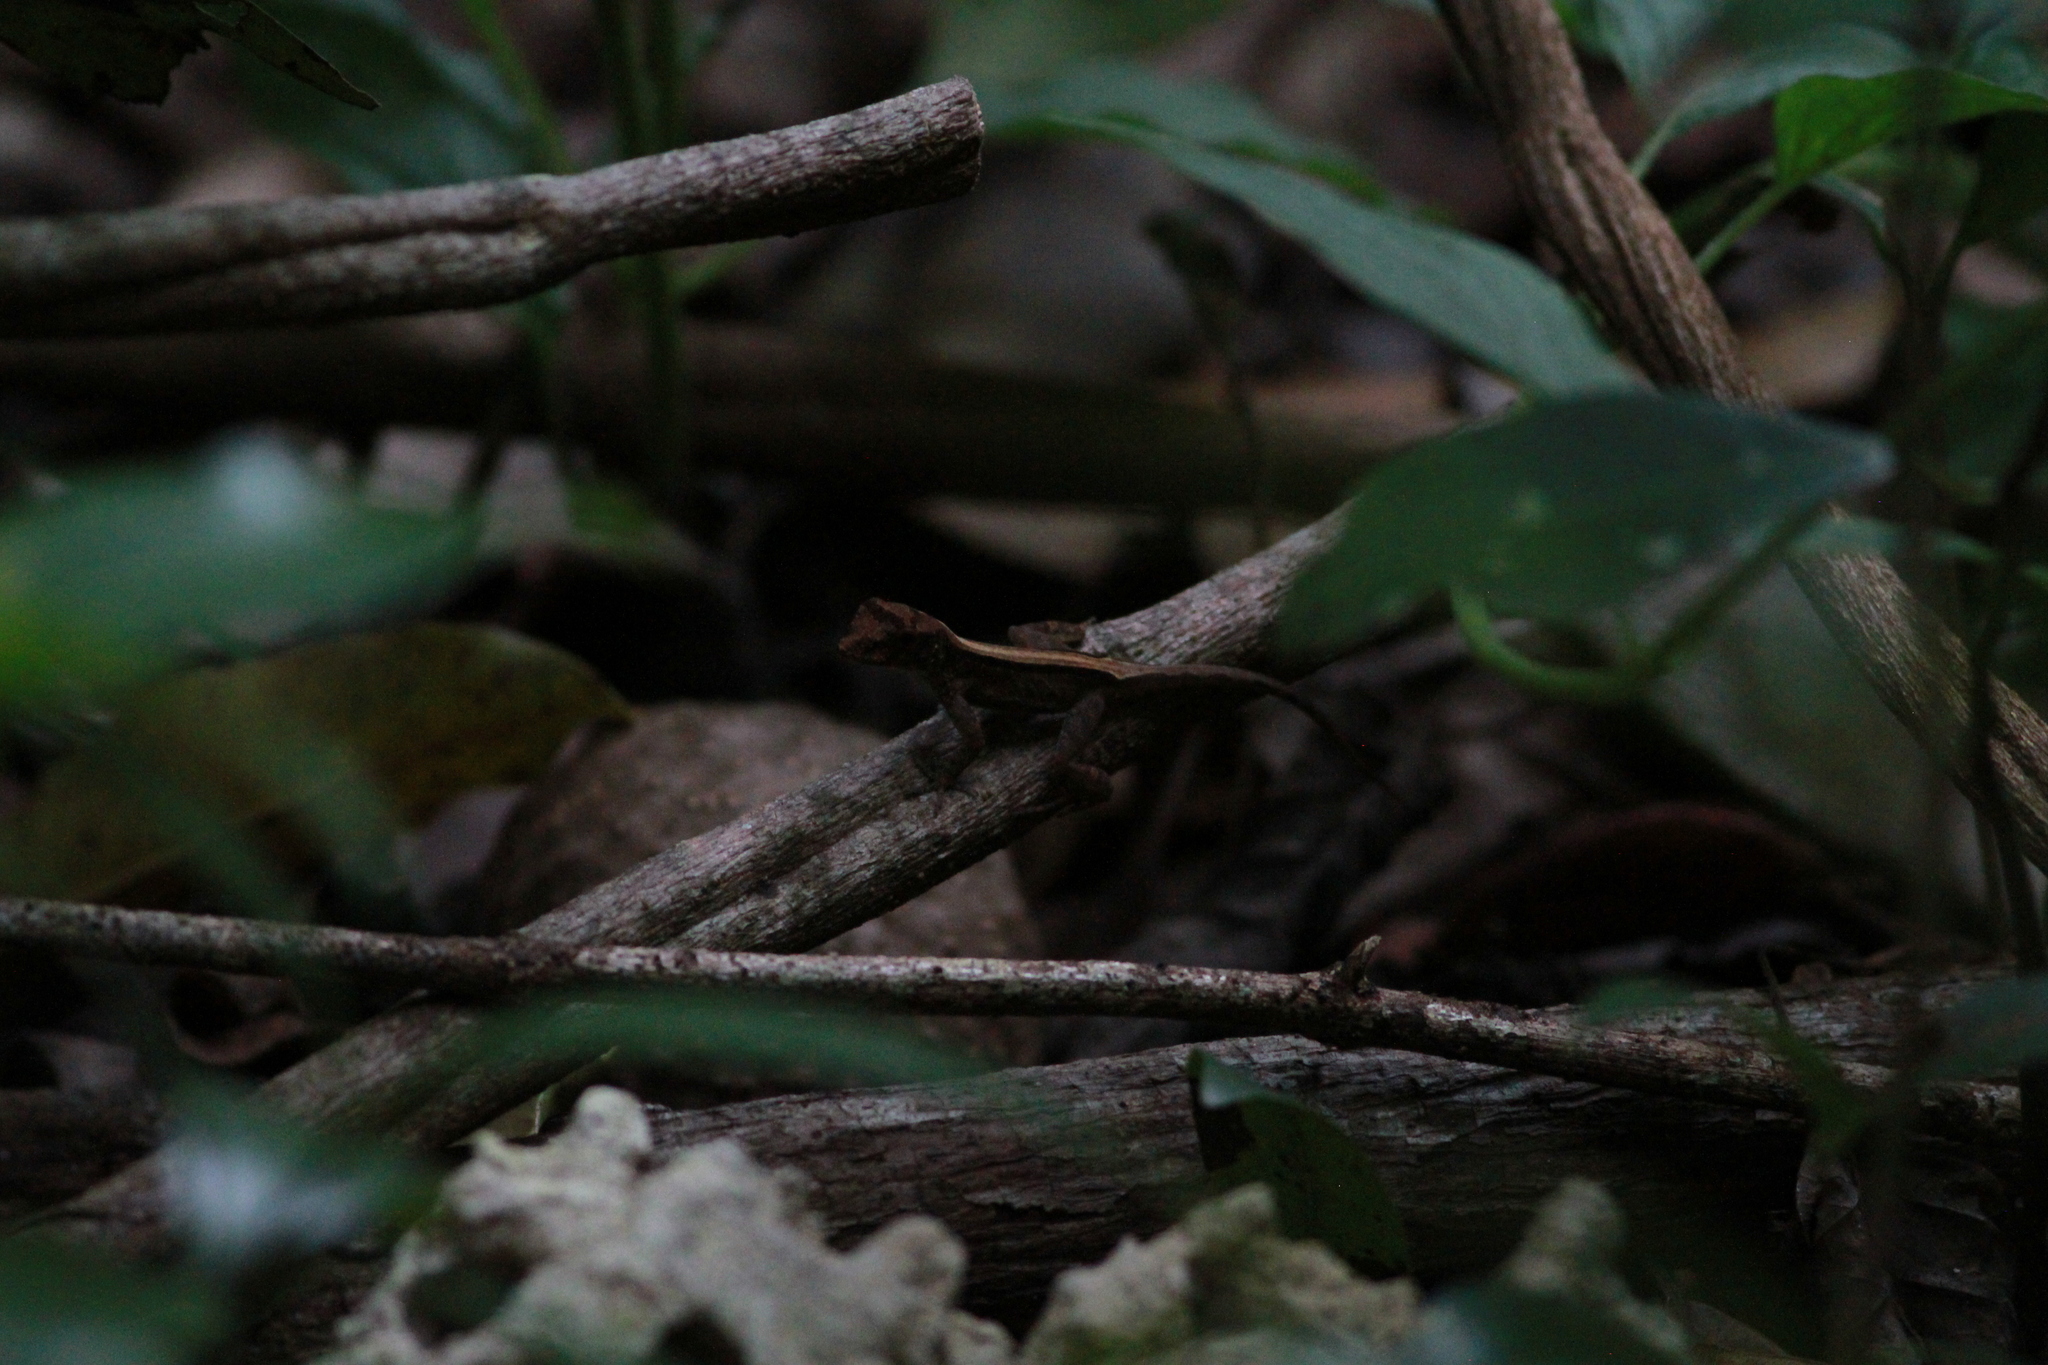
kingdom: Animalia
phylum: Chordata
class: Squamata
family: Dactyloidae
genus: Anolis
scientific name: Anolis cristatellus
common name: Crested anole
